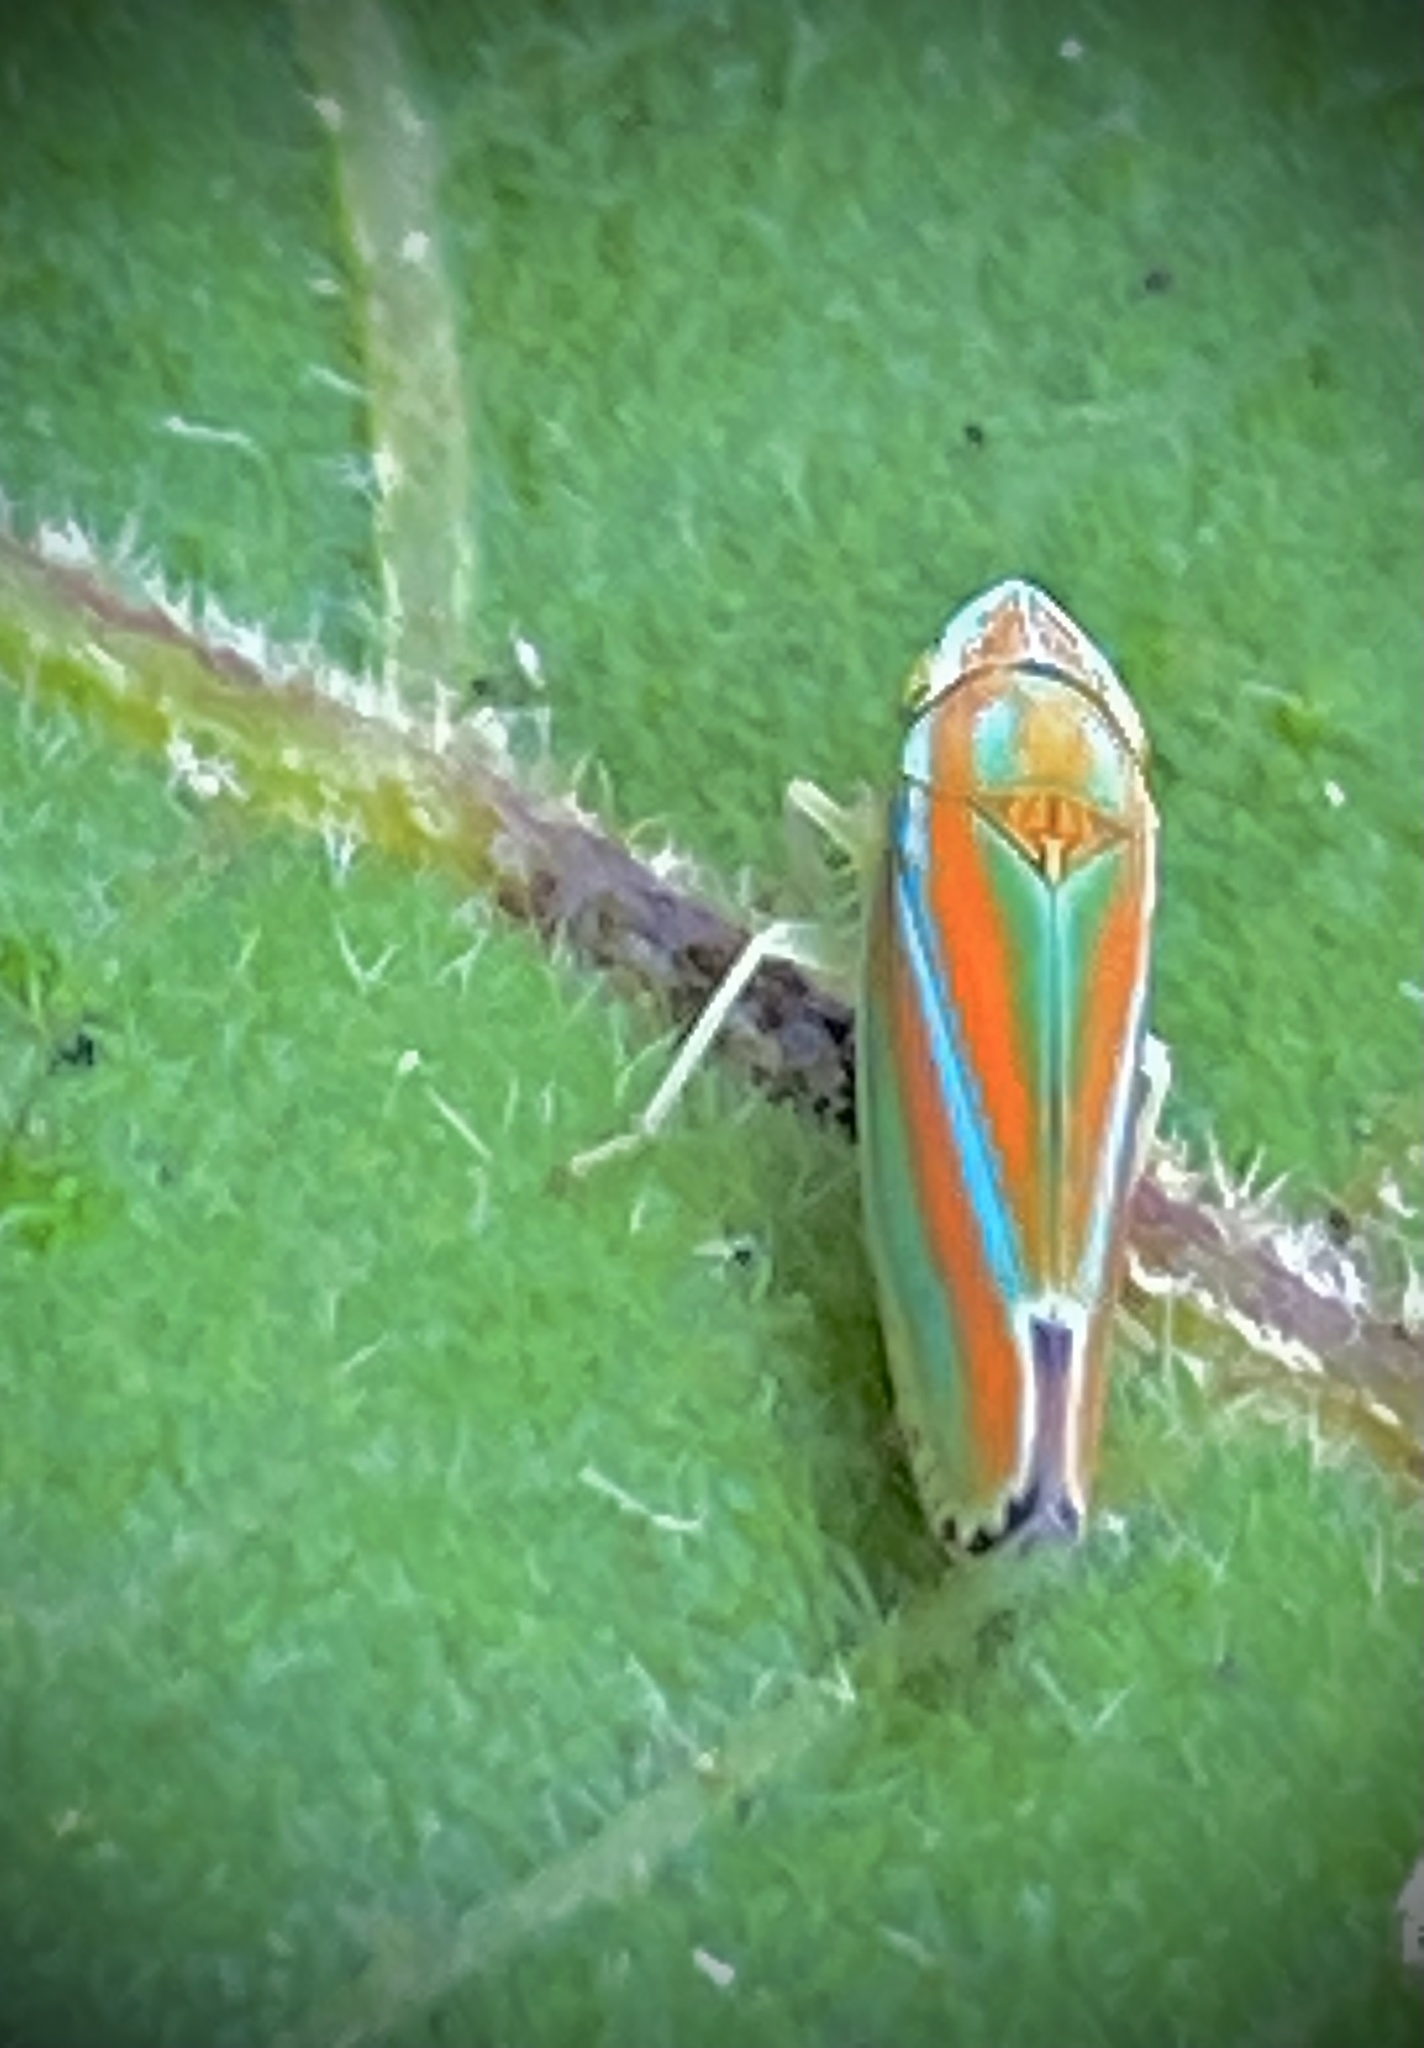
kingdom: Animalia
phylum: Arthropoda
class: Insecta
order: Hemiptera
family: Cicadellidae
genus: Graphocephala
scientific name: Graphocephala versuta
